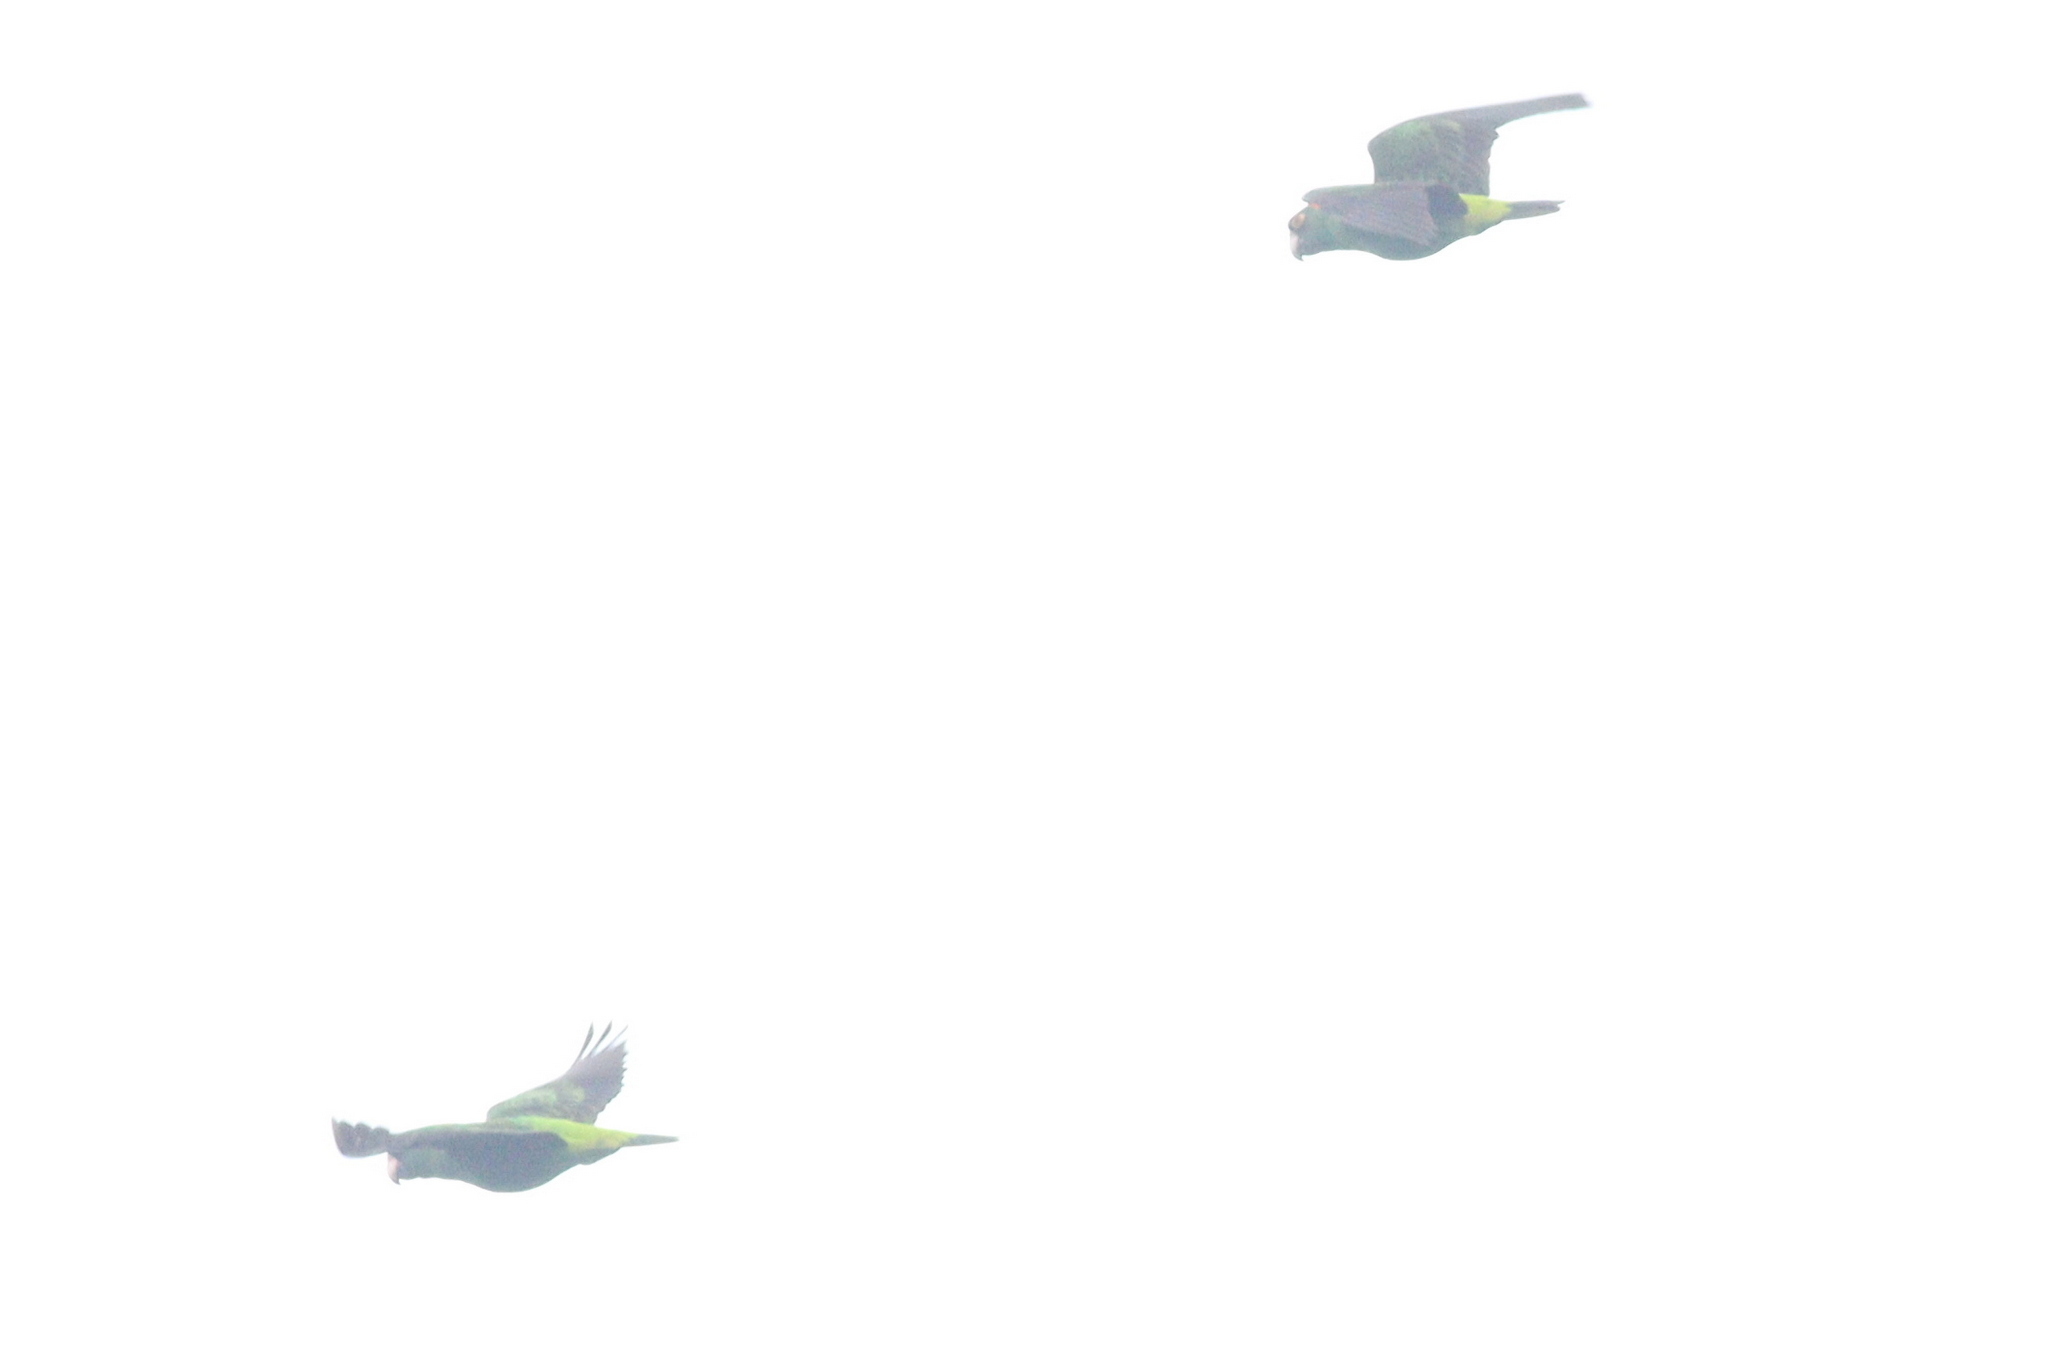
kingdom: Animalia
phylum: Chordata
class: Aves
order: Psittaciformes
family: Psittacidae
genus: Poicephalus
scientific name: Poicephalus gulielmi
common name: Red-fronted parrot
